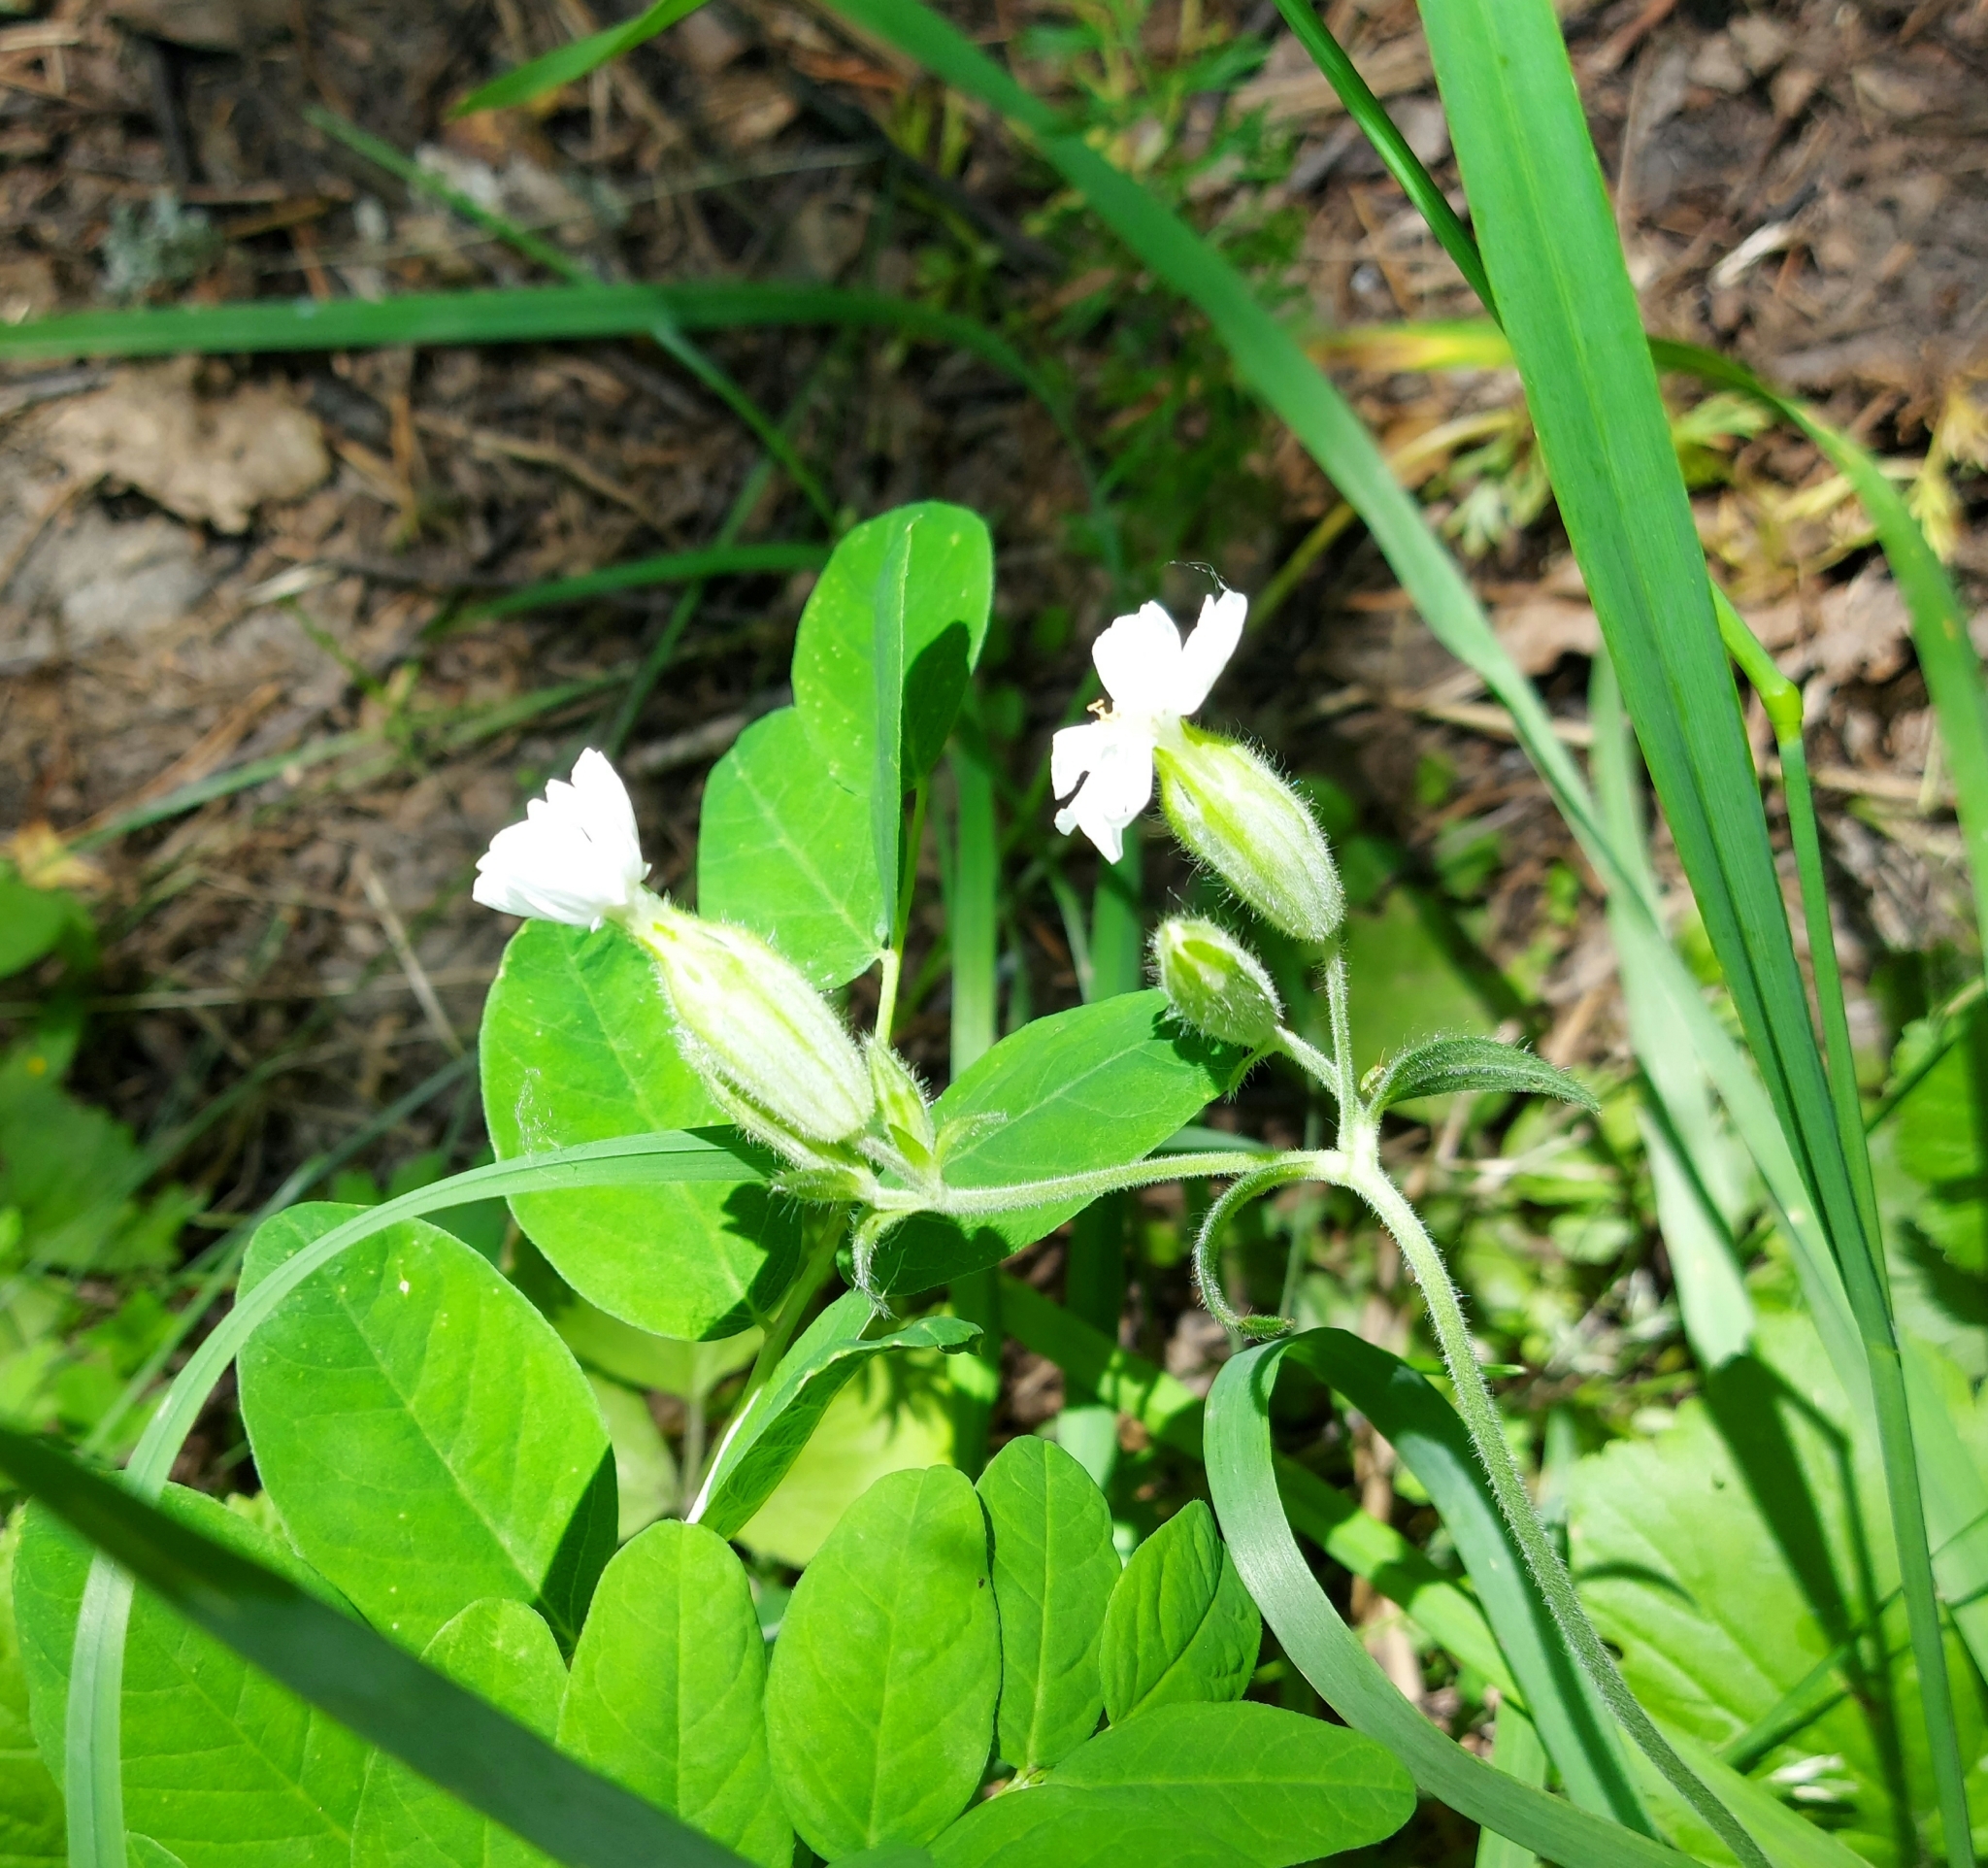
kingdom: Plantae
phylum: Tracheophyta
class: Magnoliopsida
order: Caryophyllales
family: Caryophyllaceae
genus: Silene
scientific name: Silene latifolia
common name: White campion
